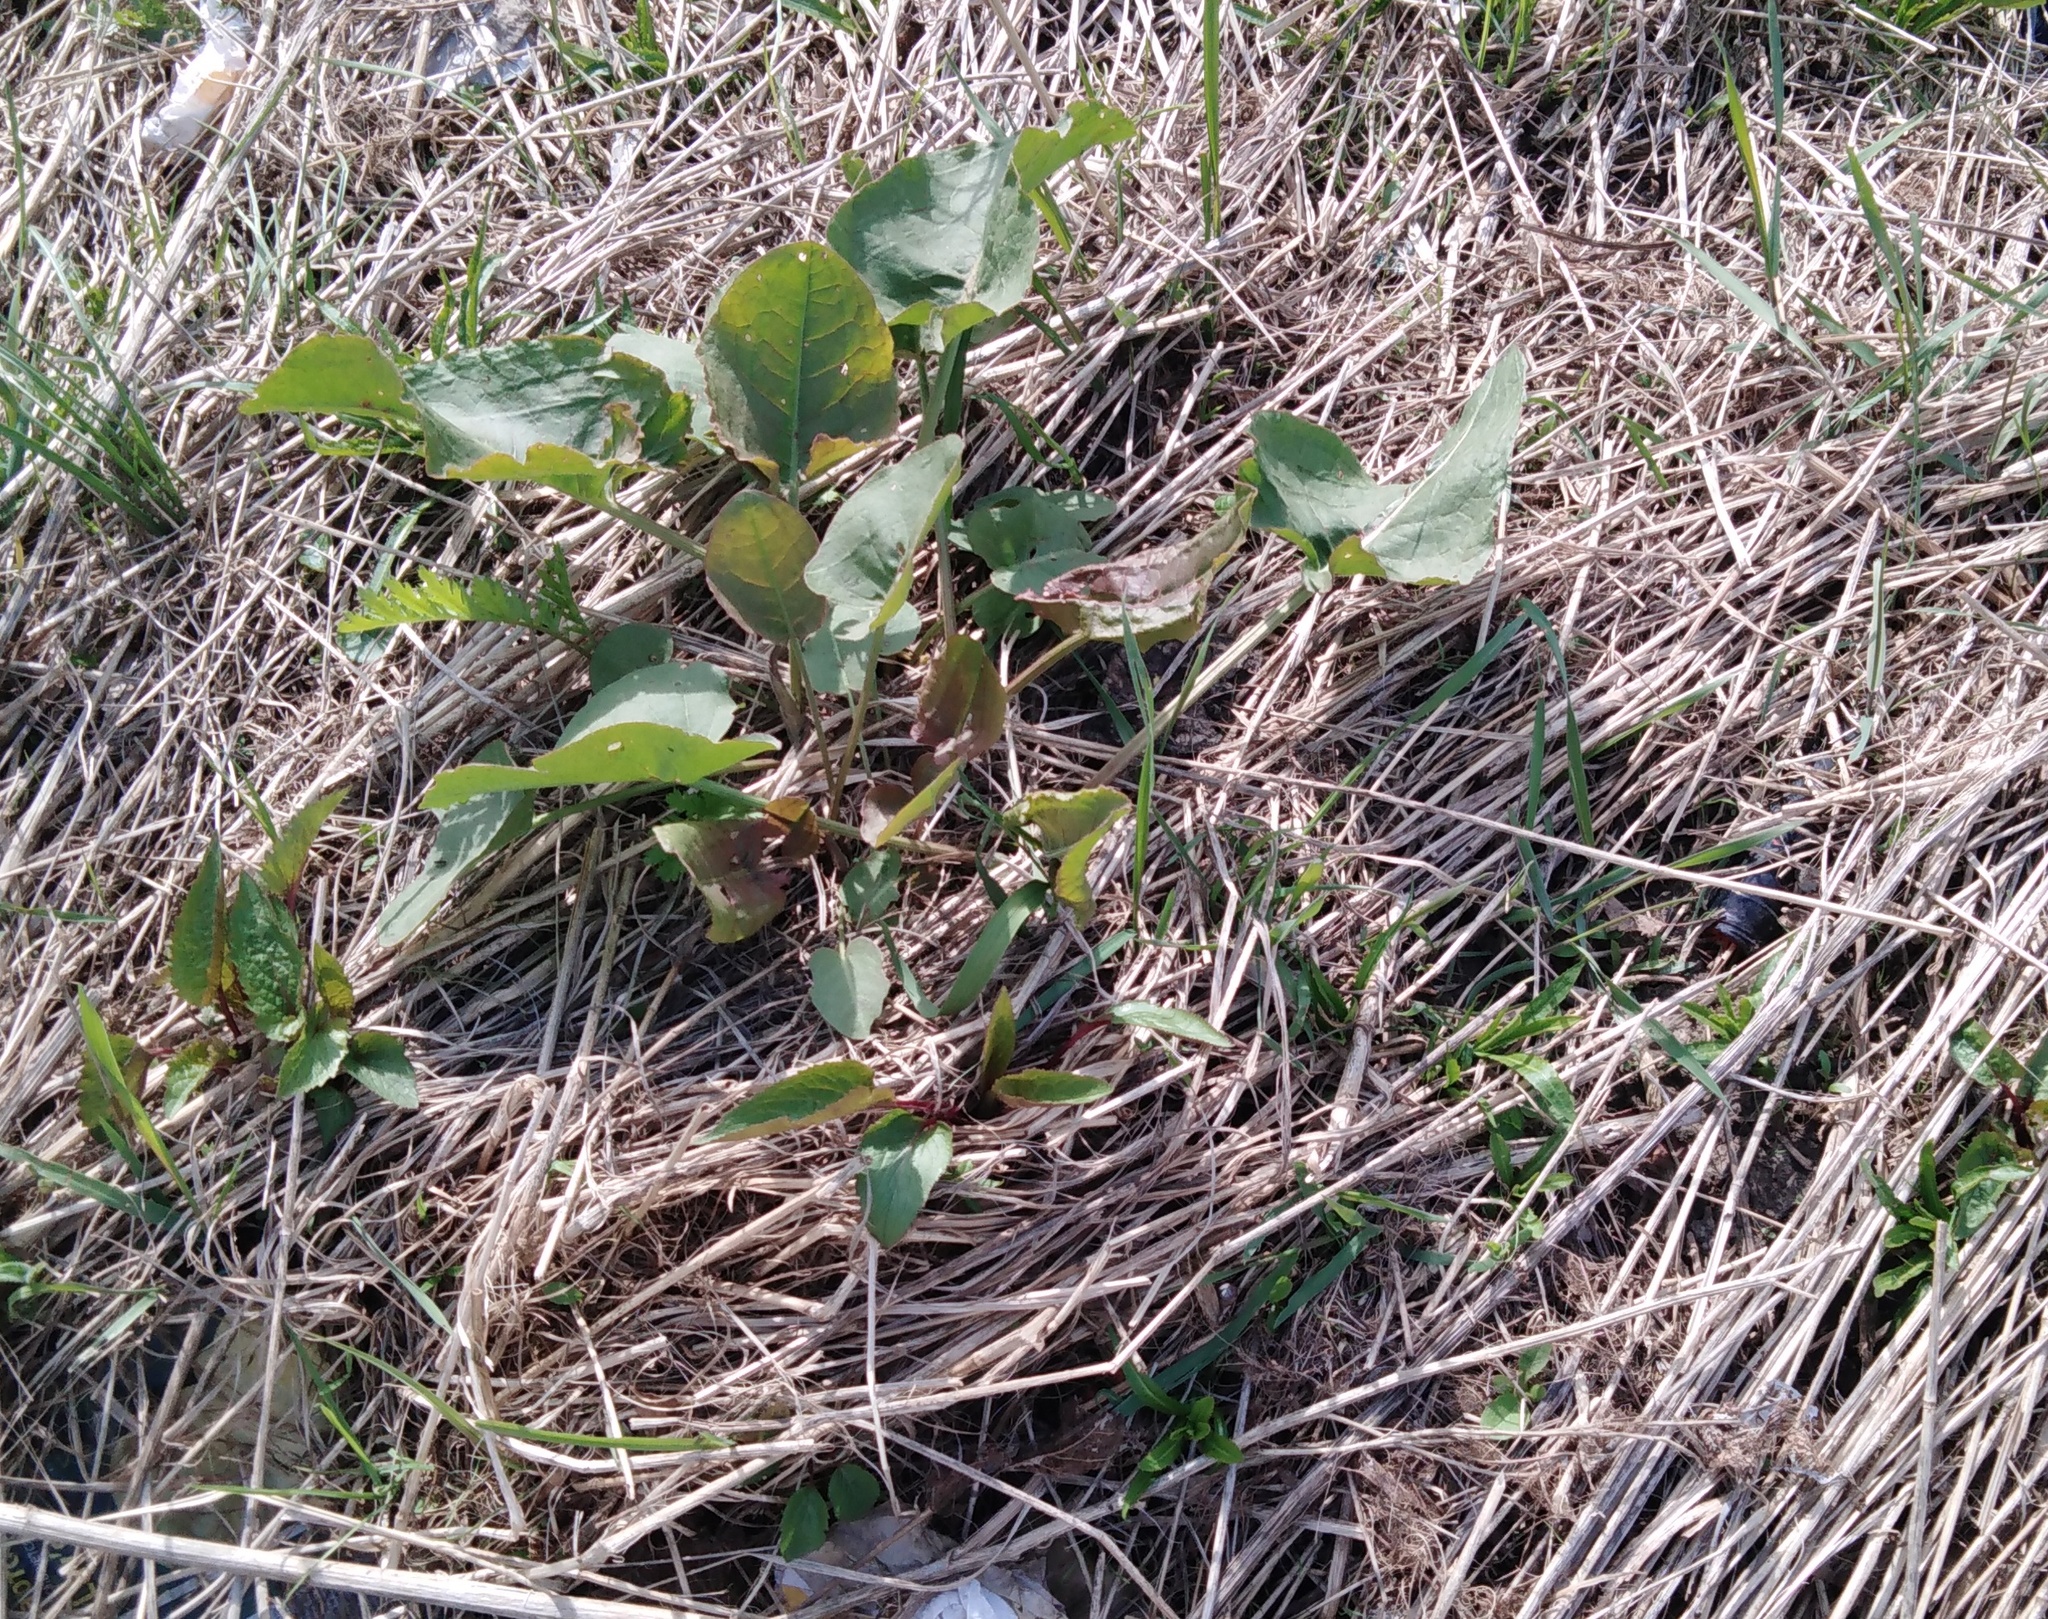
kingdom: Plantae
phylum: Tracheophyta
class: Magnoliopsida
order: Caryophyllales
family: Polygonaceae
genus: Rumex
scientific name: Rumex confertus
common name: Russian dock
